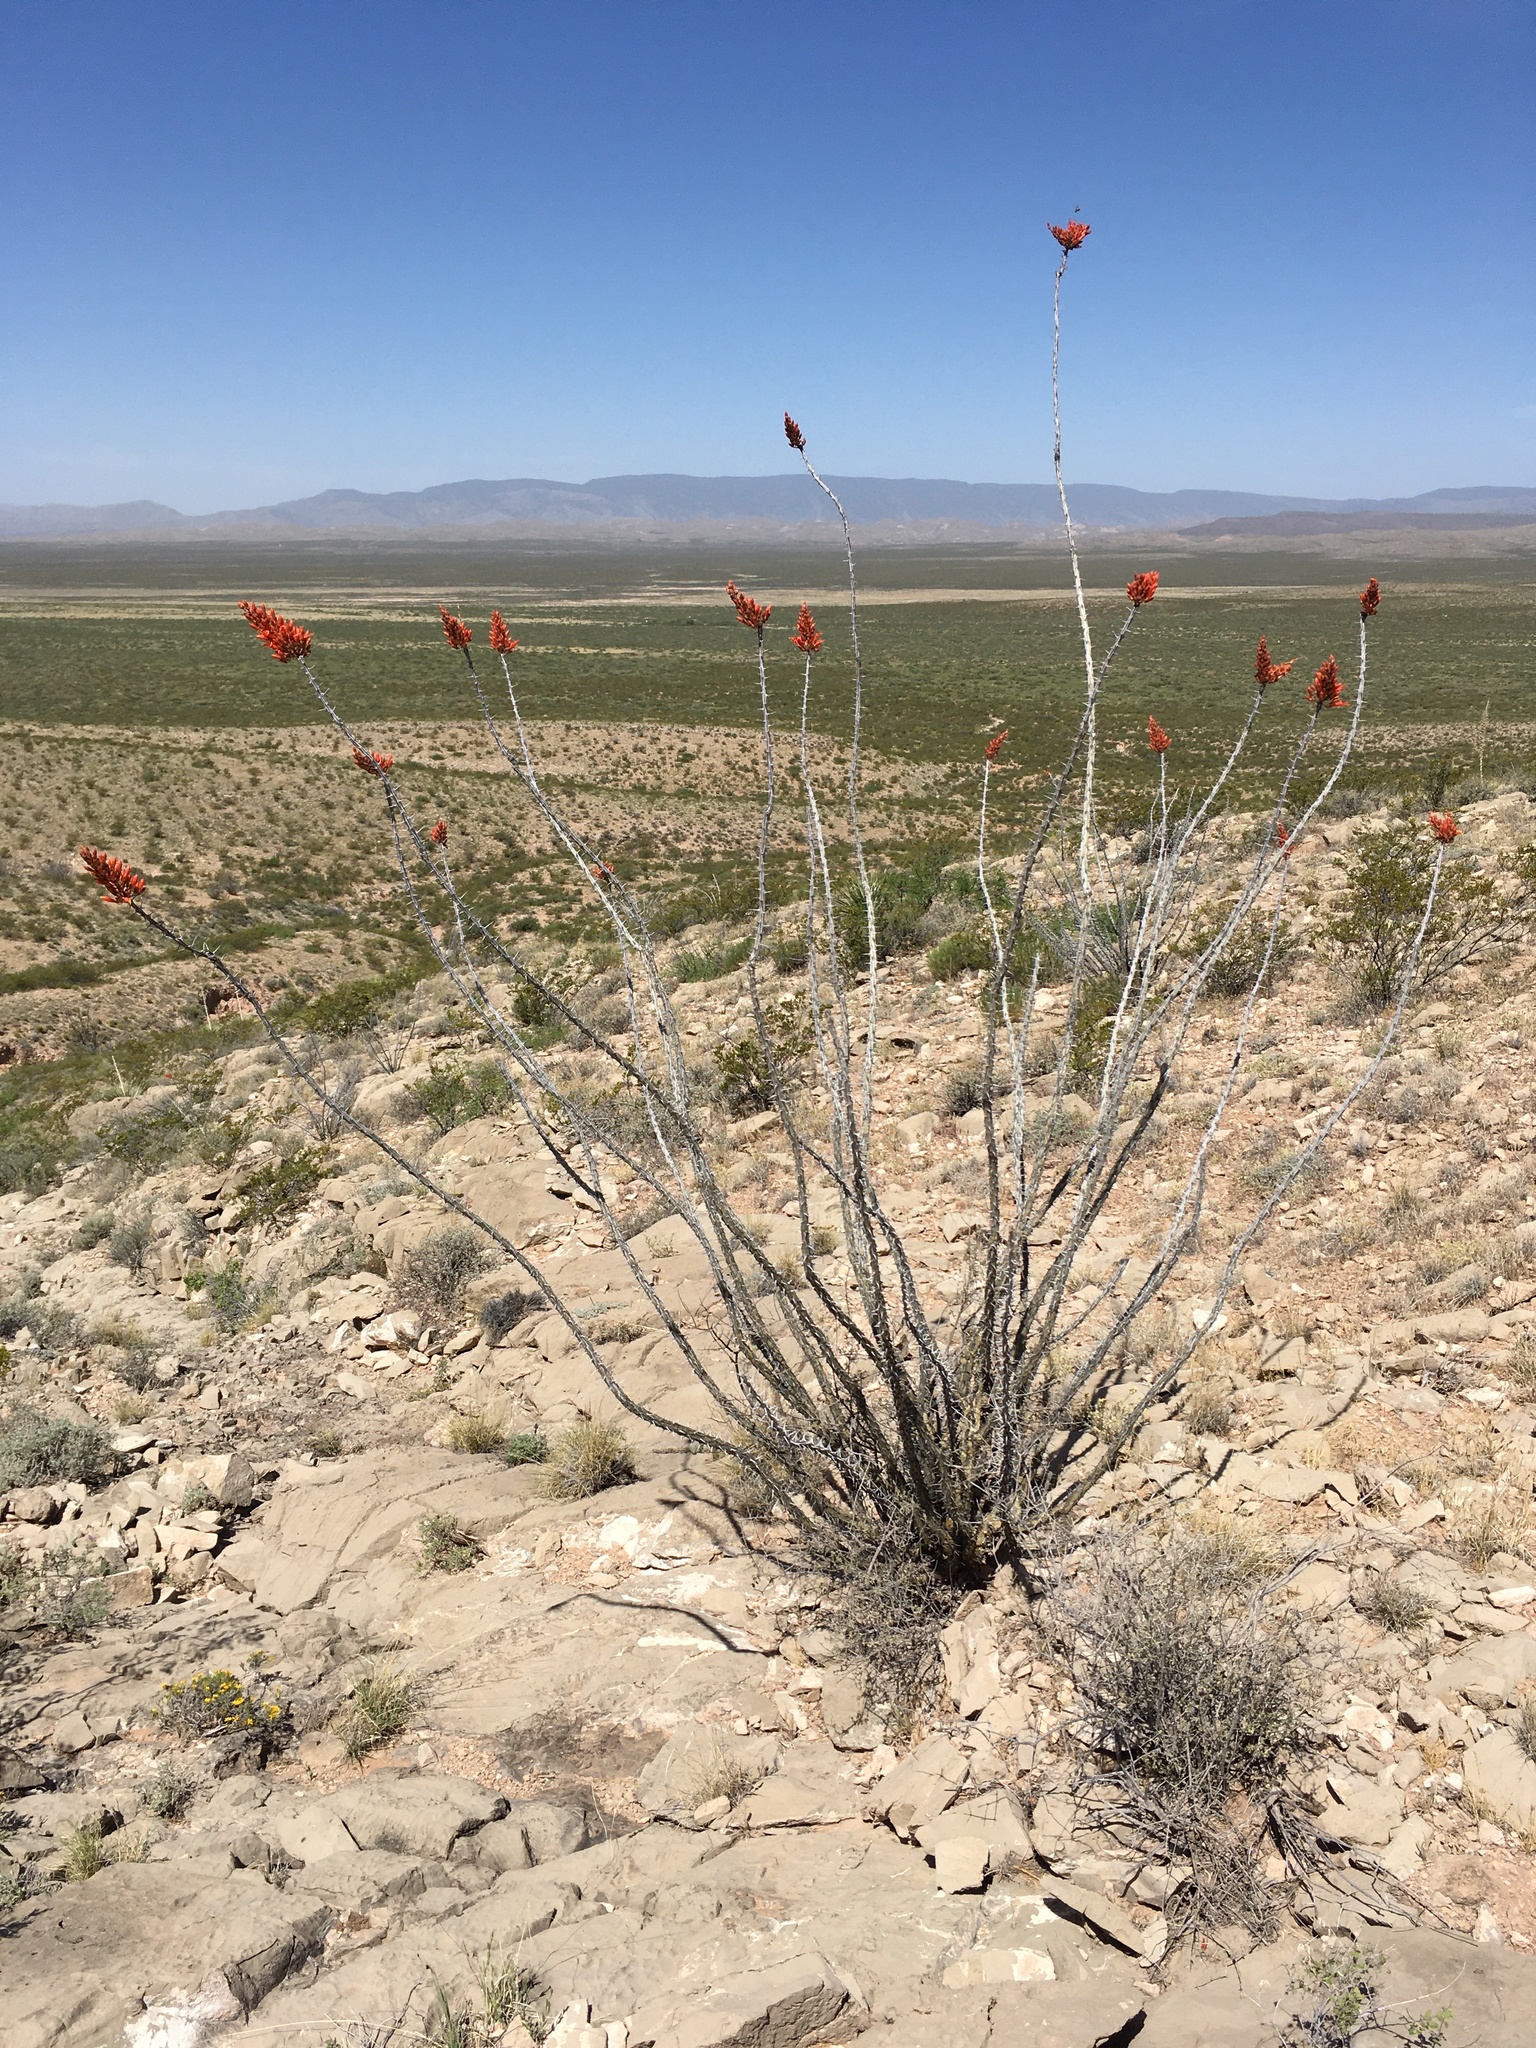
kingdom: Plantae
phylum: Tracheophyta
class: Magnoliopsida
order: Ericales
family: Fouquieriaceae
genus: Fouquieria
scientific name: Fouquieria splendens
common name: Vine-cactus
